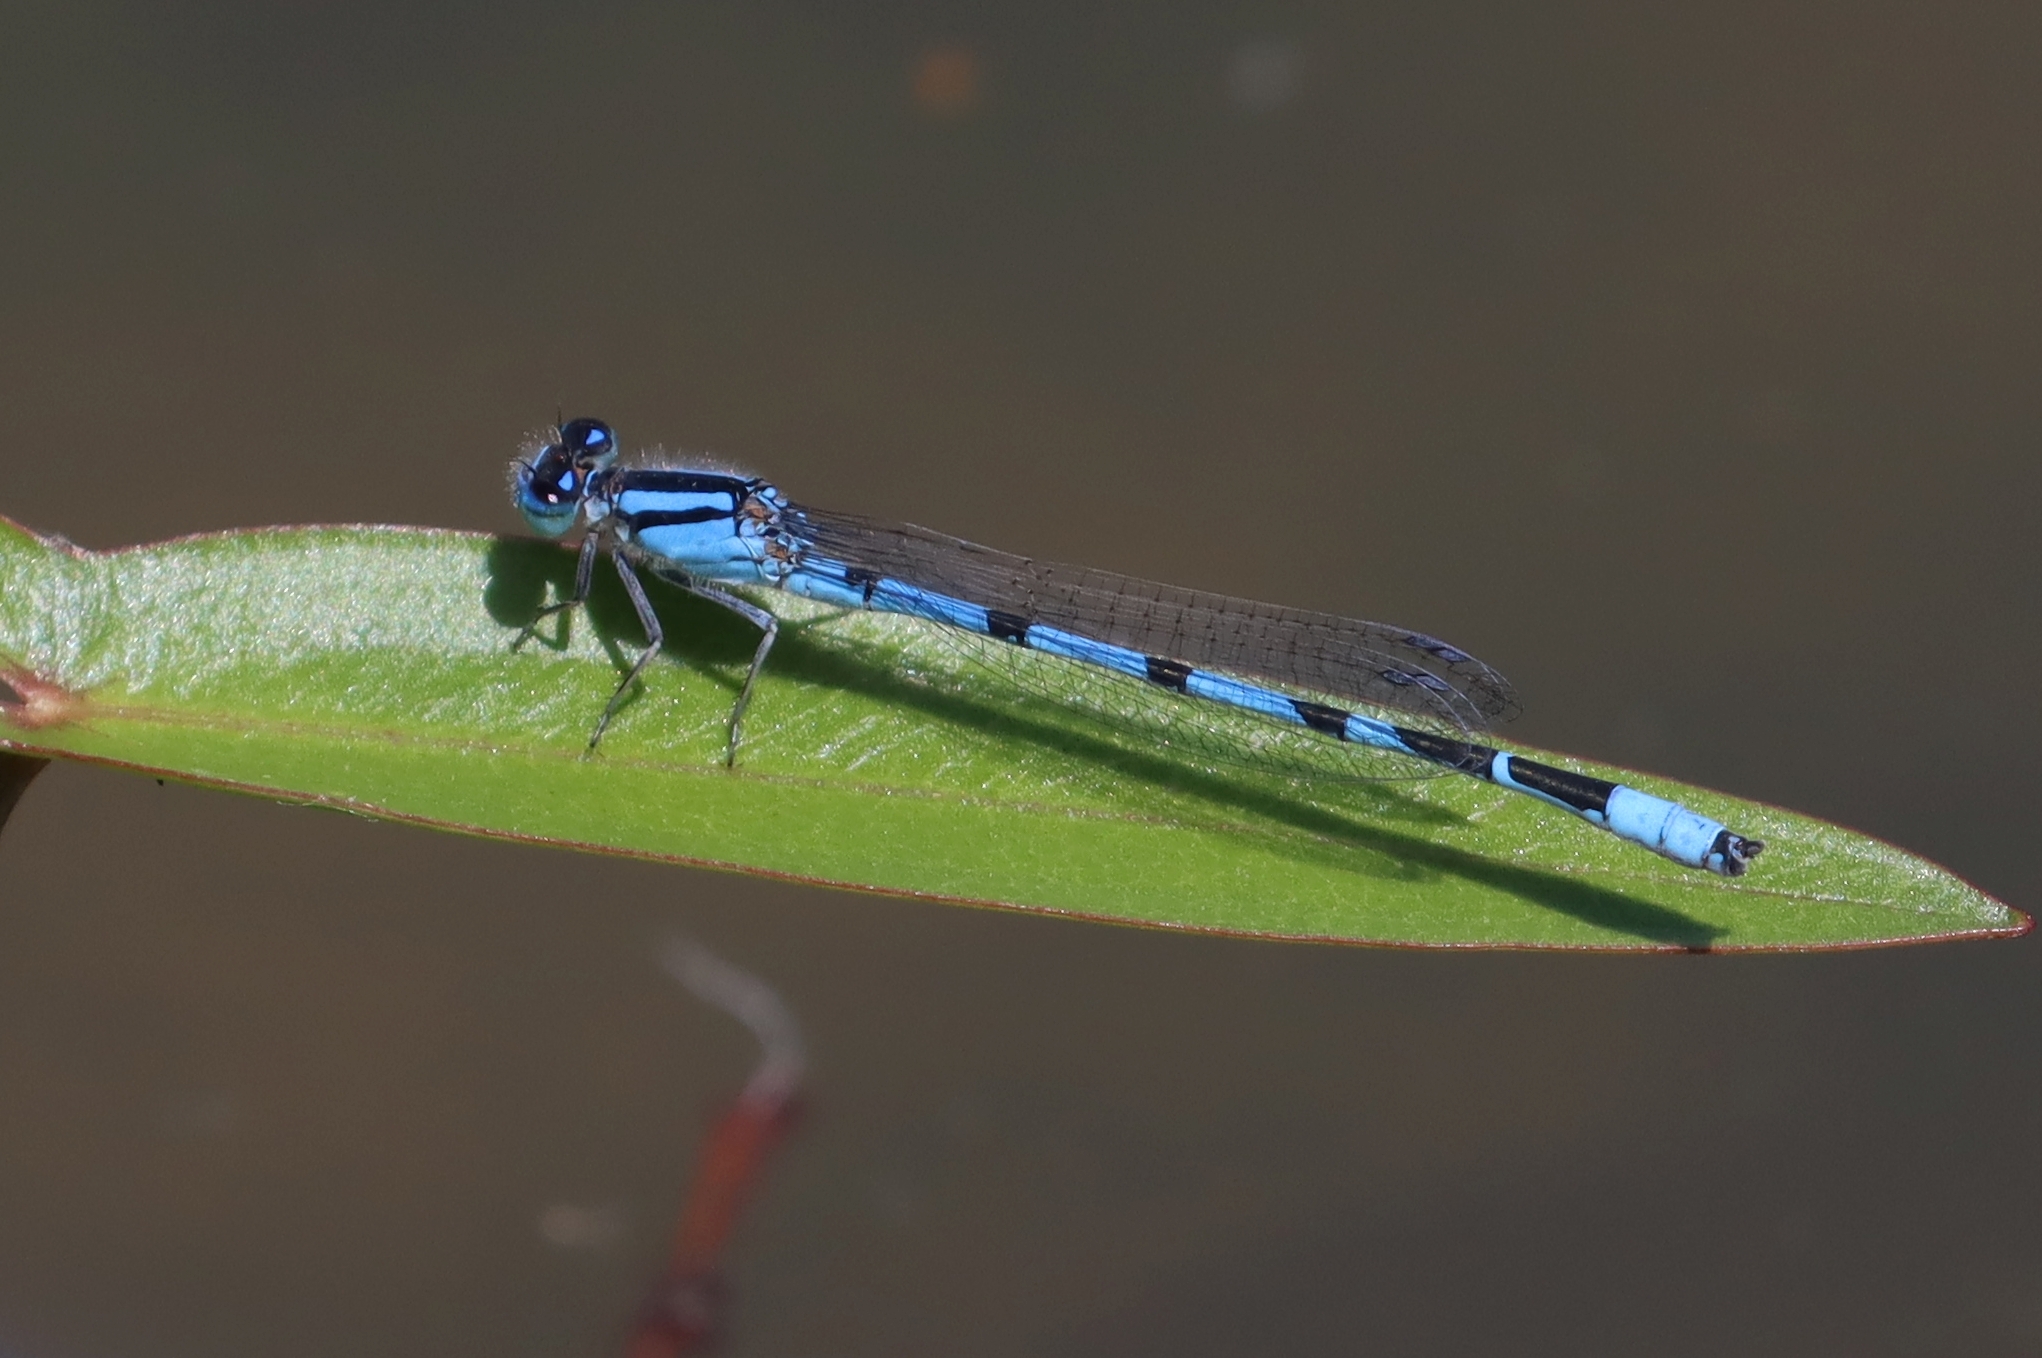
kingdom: Animalia
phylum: Arthropoda
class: Insecta
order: Odonata
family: Coenagrionidae
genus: Enallagma
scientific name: Enallagma civile
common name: Damselfly
